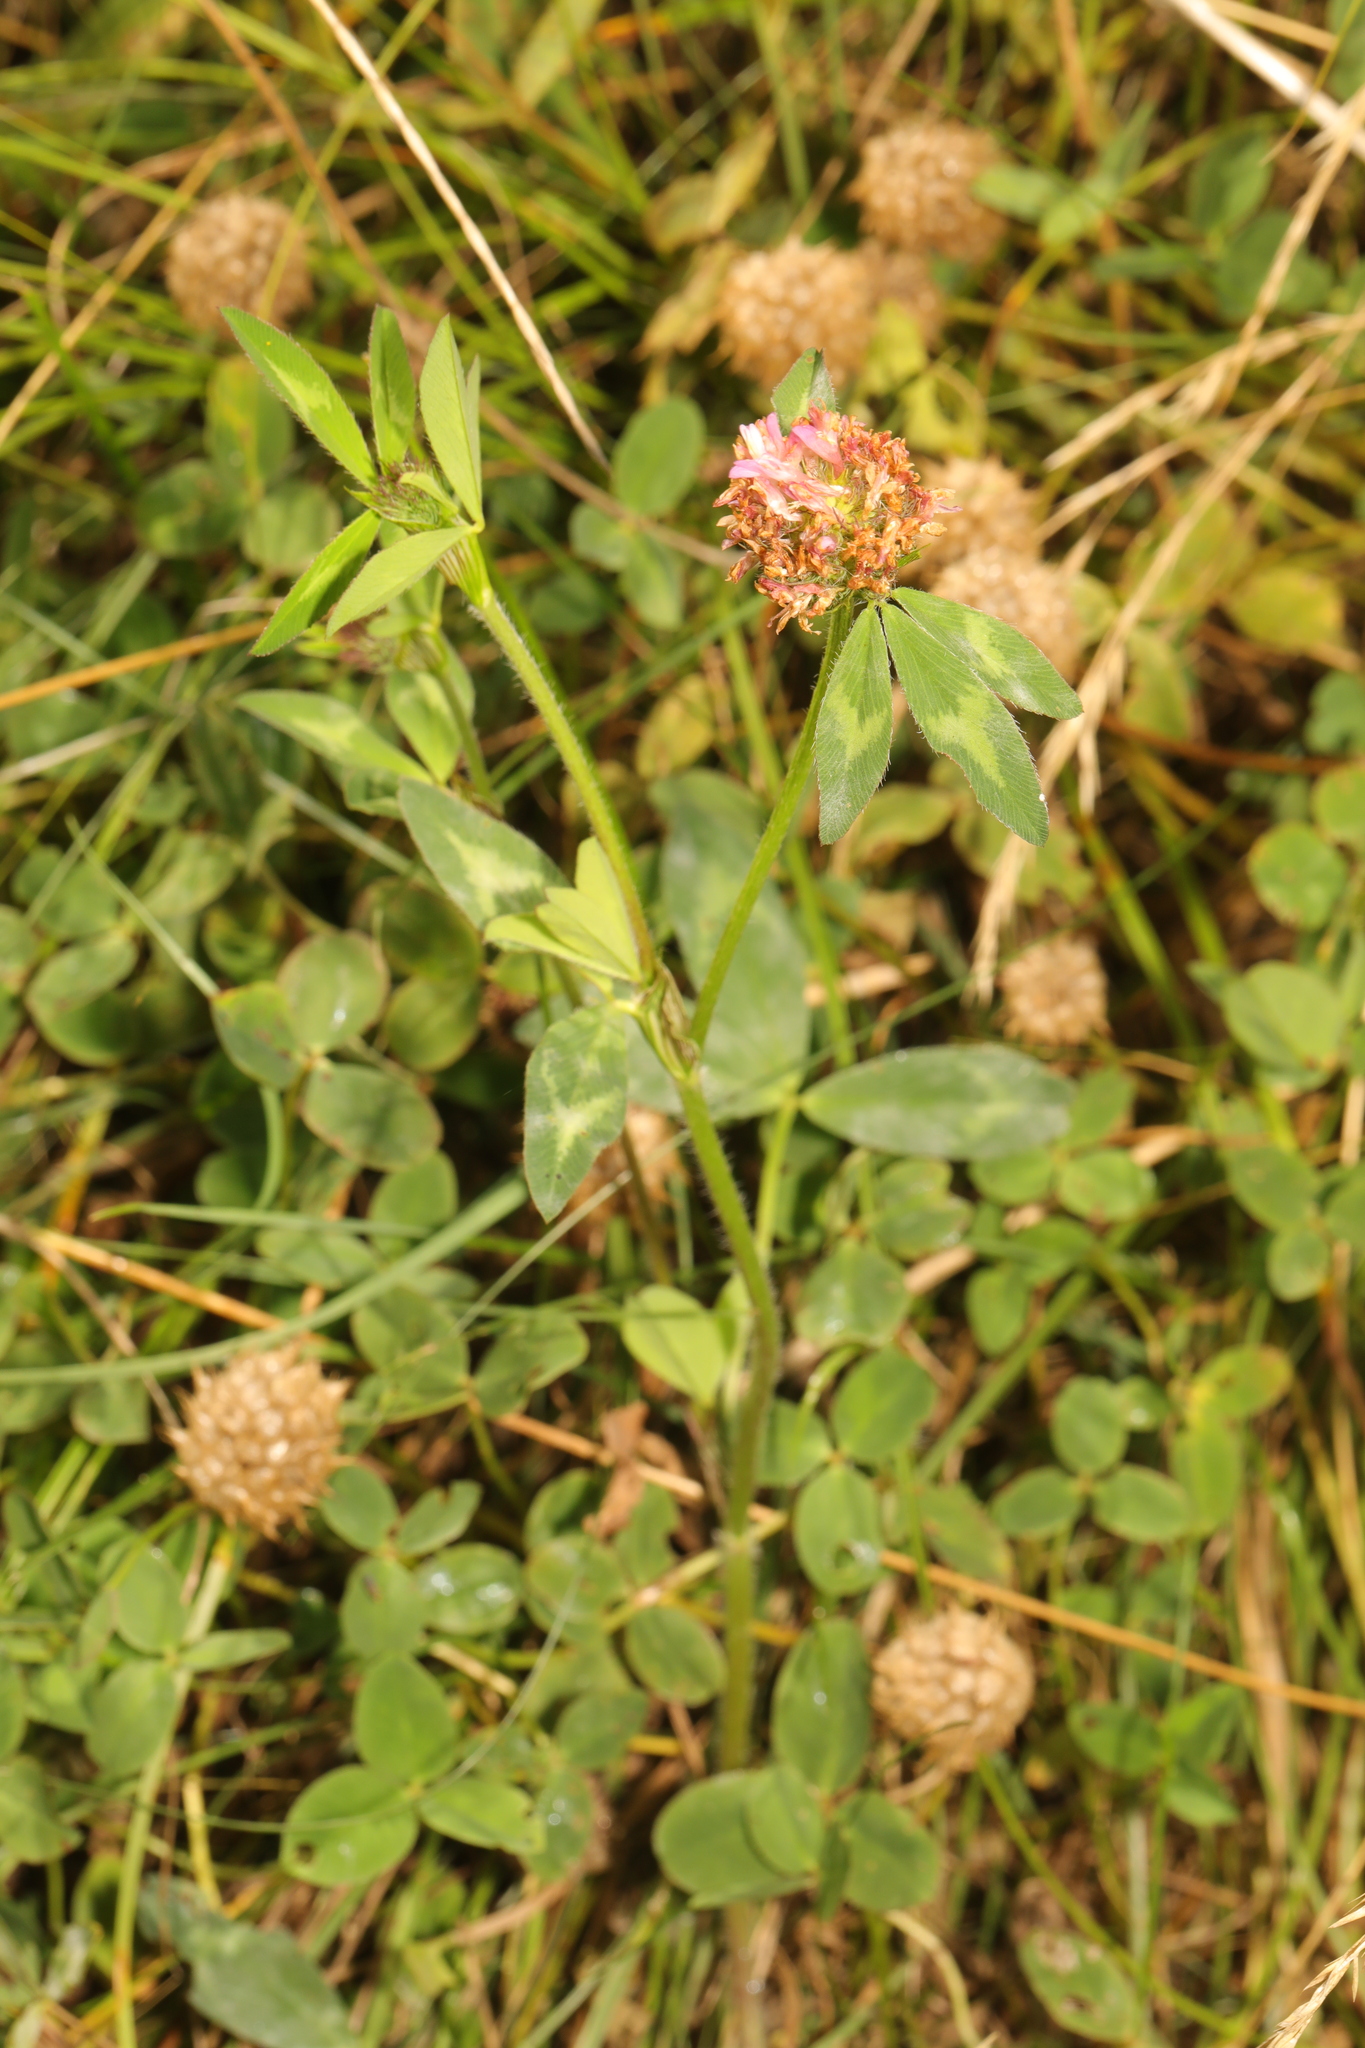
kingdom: Plantae
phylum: Tracheophyta
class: Magnoliopsida
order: Fabales
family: Fabaceae
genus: Trifolium
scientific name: Trifolium fragiferum
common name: Strawberry clover
